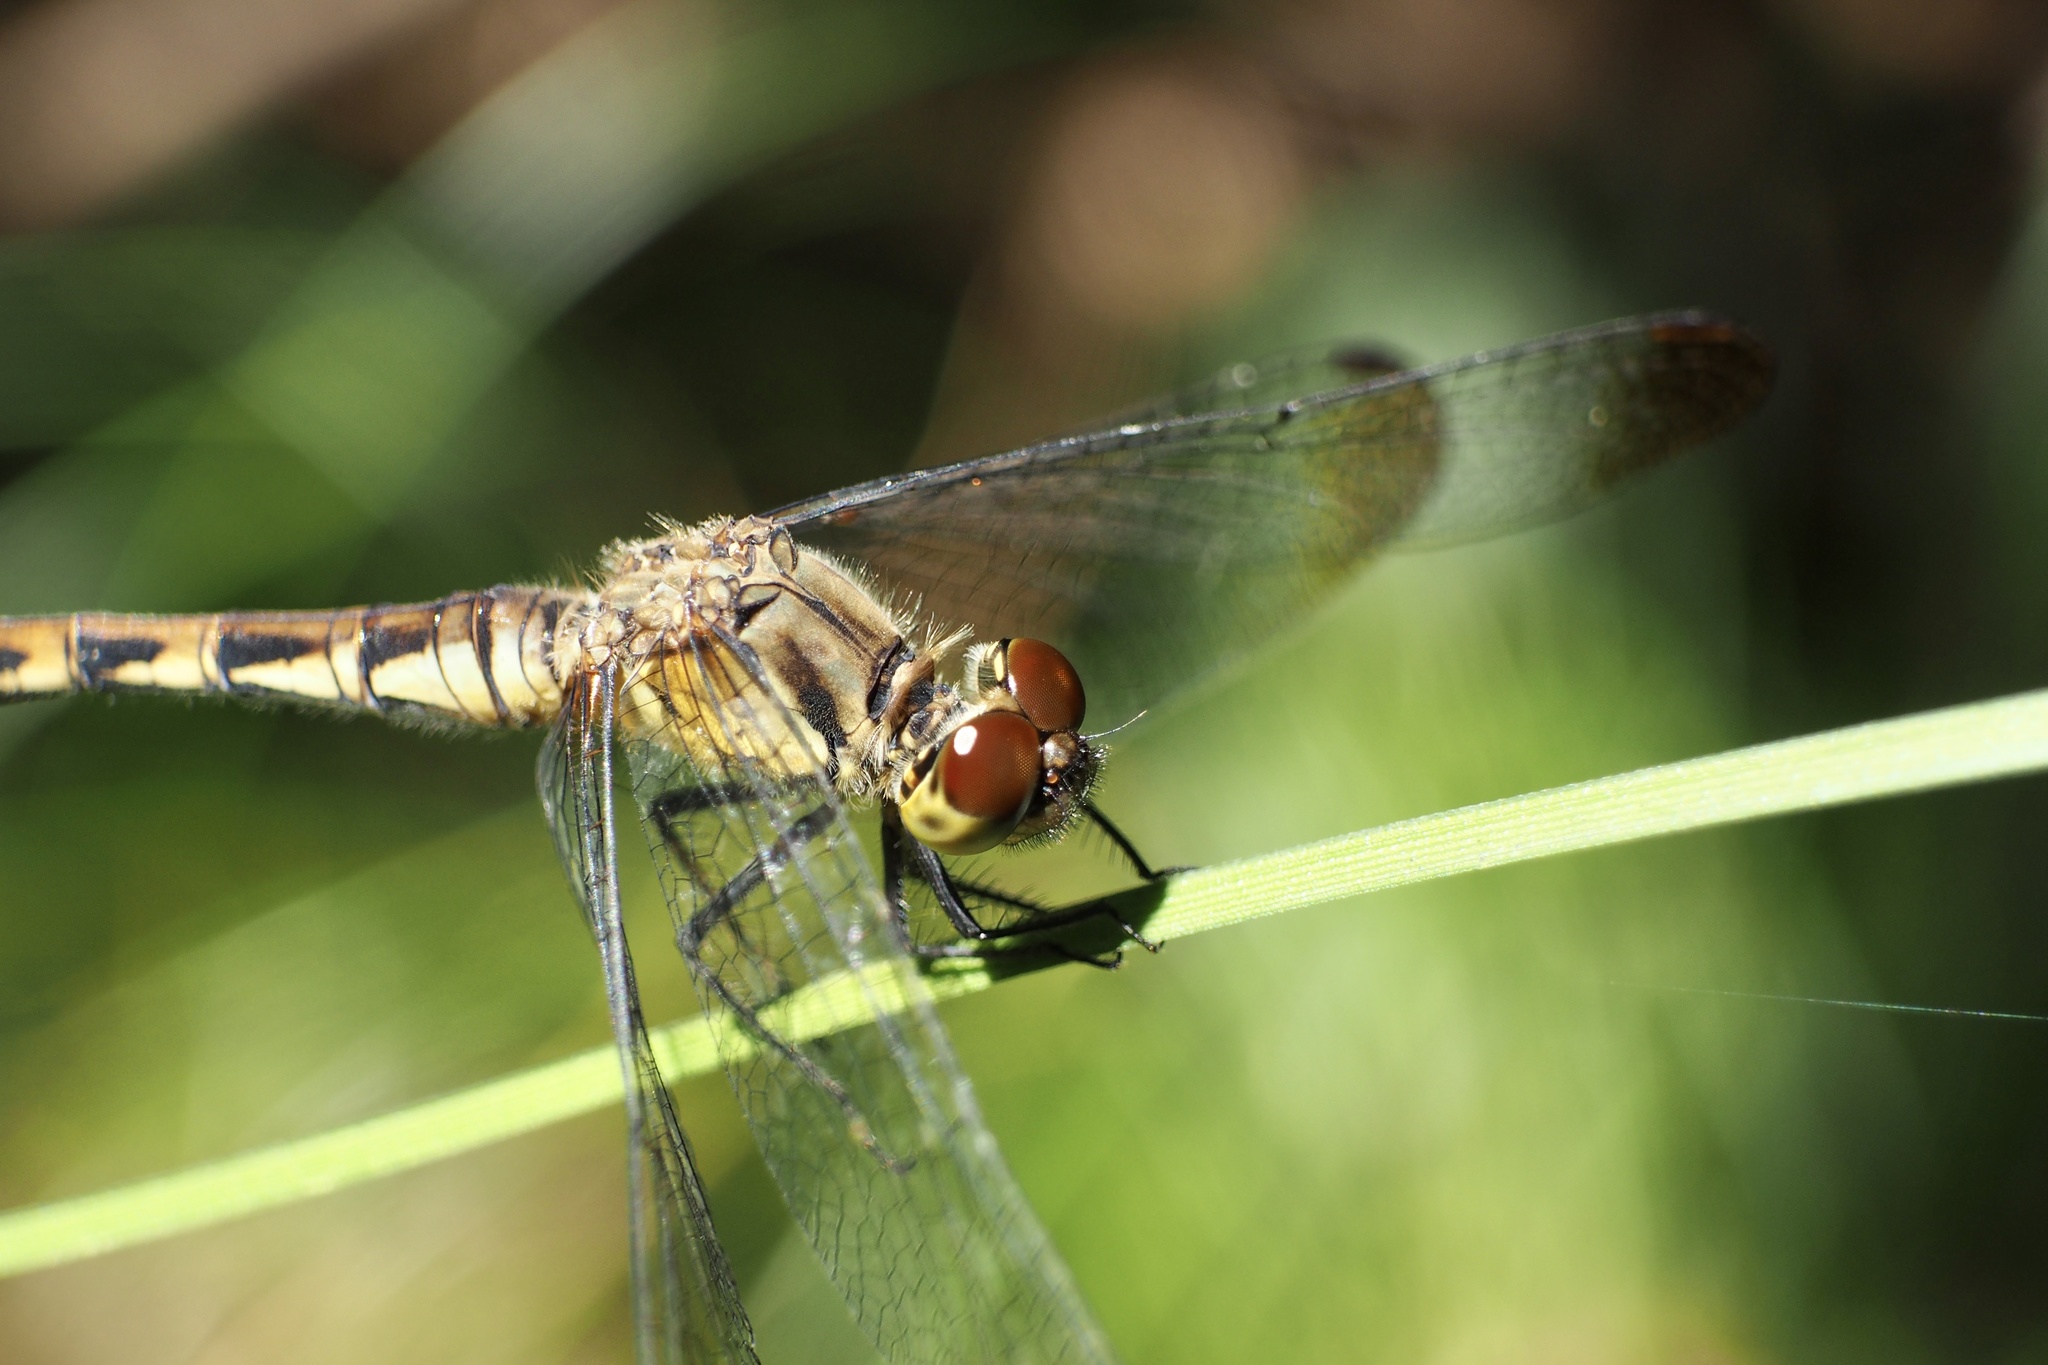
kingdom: Animalia
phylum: Arthropoda
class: Insecta
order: Odonata
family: Libellulidae
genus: Sympetrum
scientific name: Sympetrum eroticum
